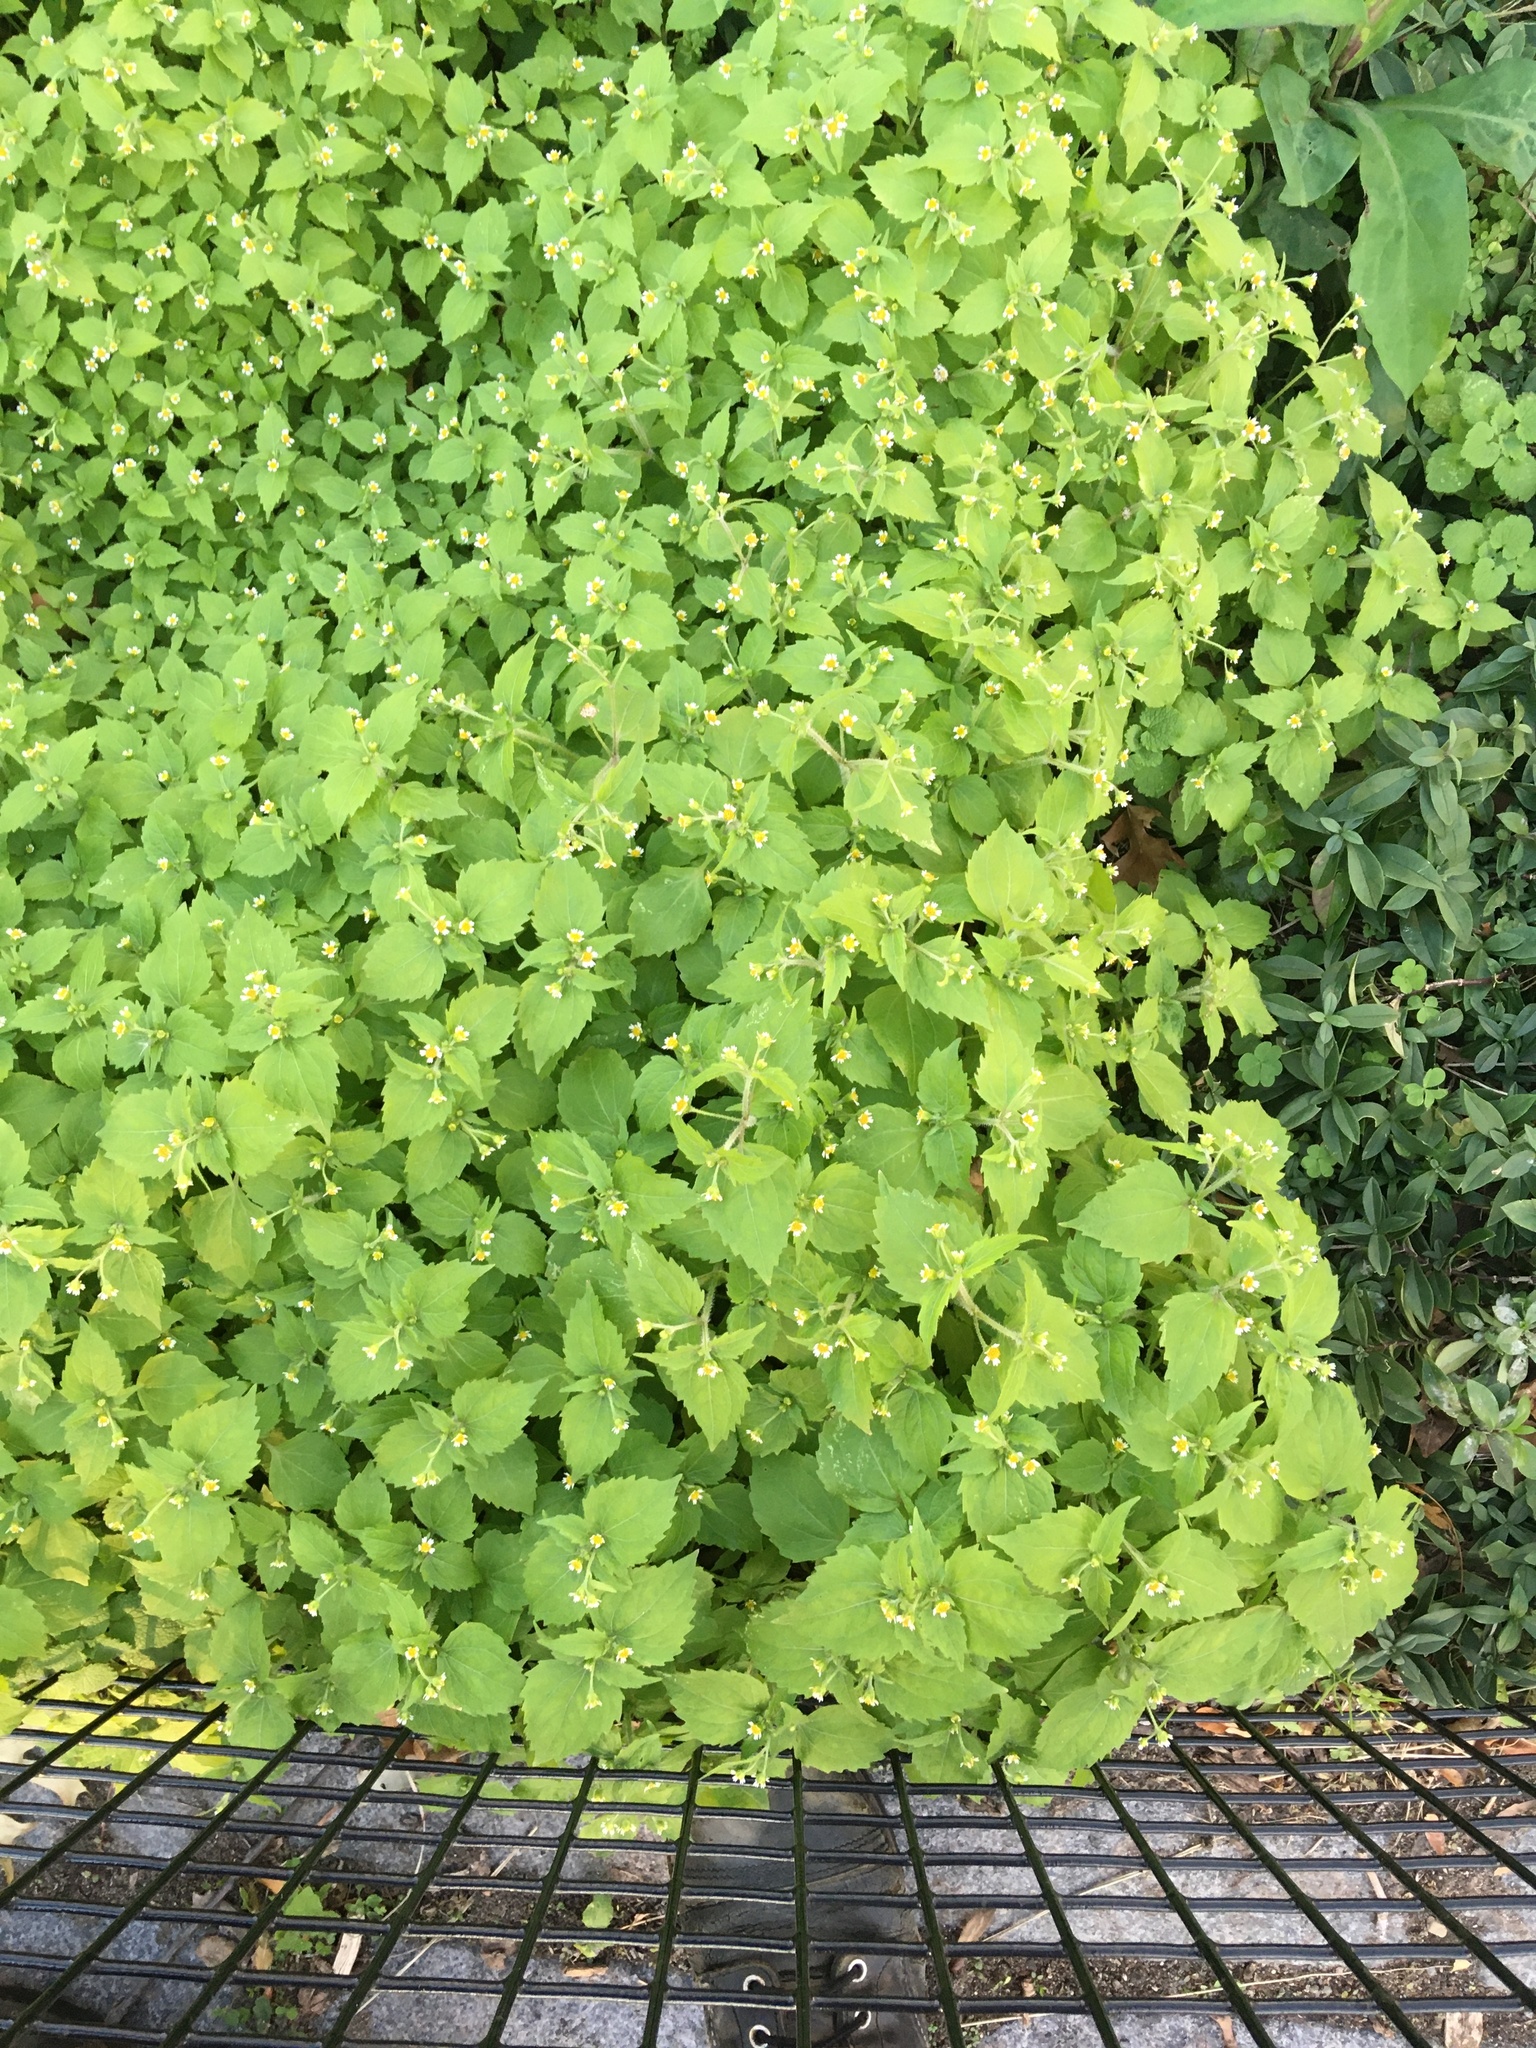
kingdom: Plantae
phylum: Tracheophyta
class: Magnoliopsida
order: Asterales
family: Asteraceae
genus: Galinsoga
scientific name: Galinsoga quadriradiata
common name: Shaggy soldier
